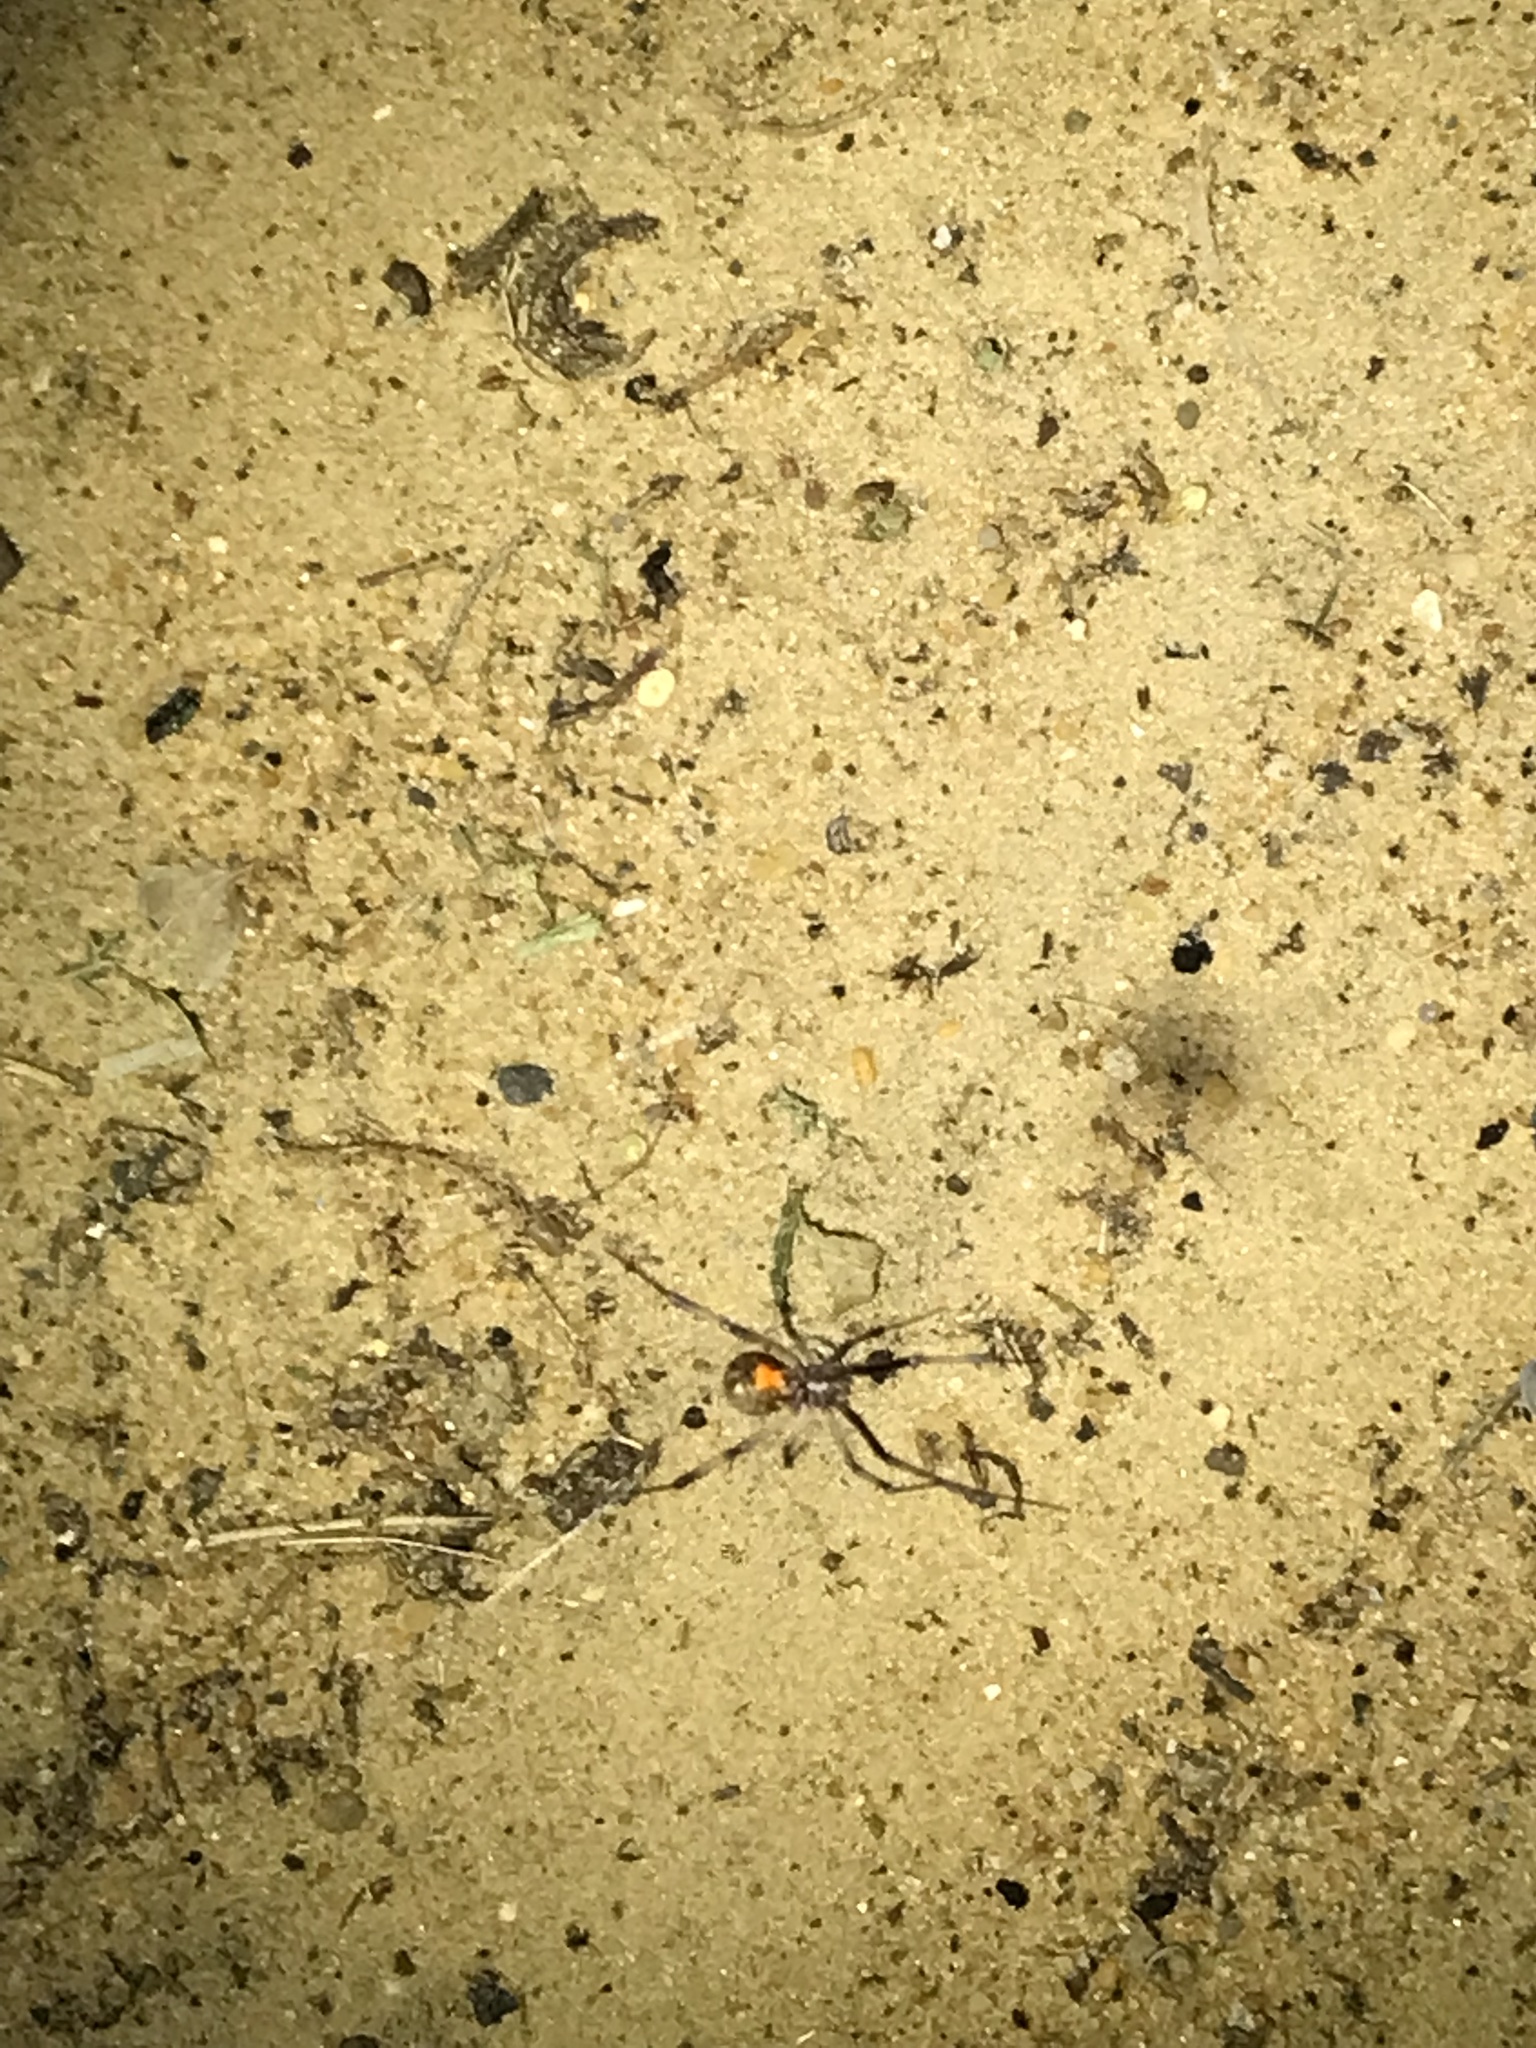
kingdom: Animalia
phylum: Arthropoda
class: Arachnida
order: Araneae
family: Theridiidae
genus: Latrodectus
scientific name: Latrodectus geometricus
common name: Brown widow spider
